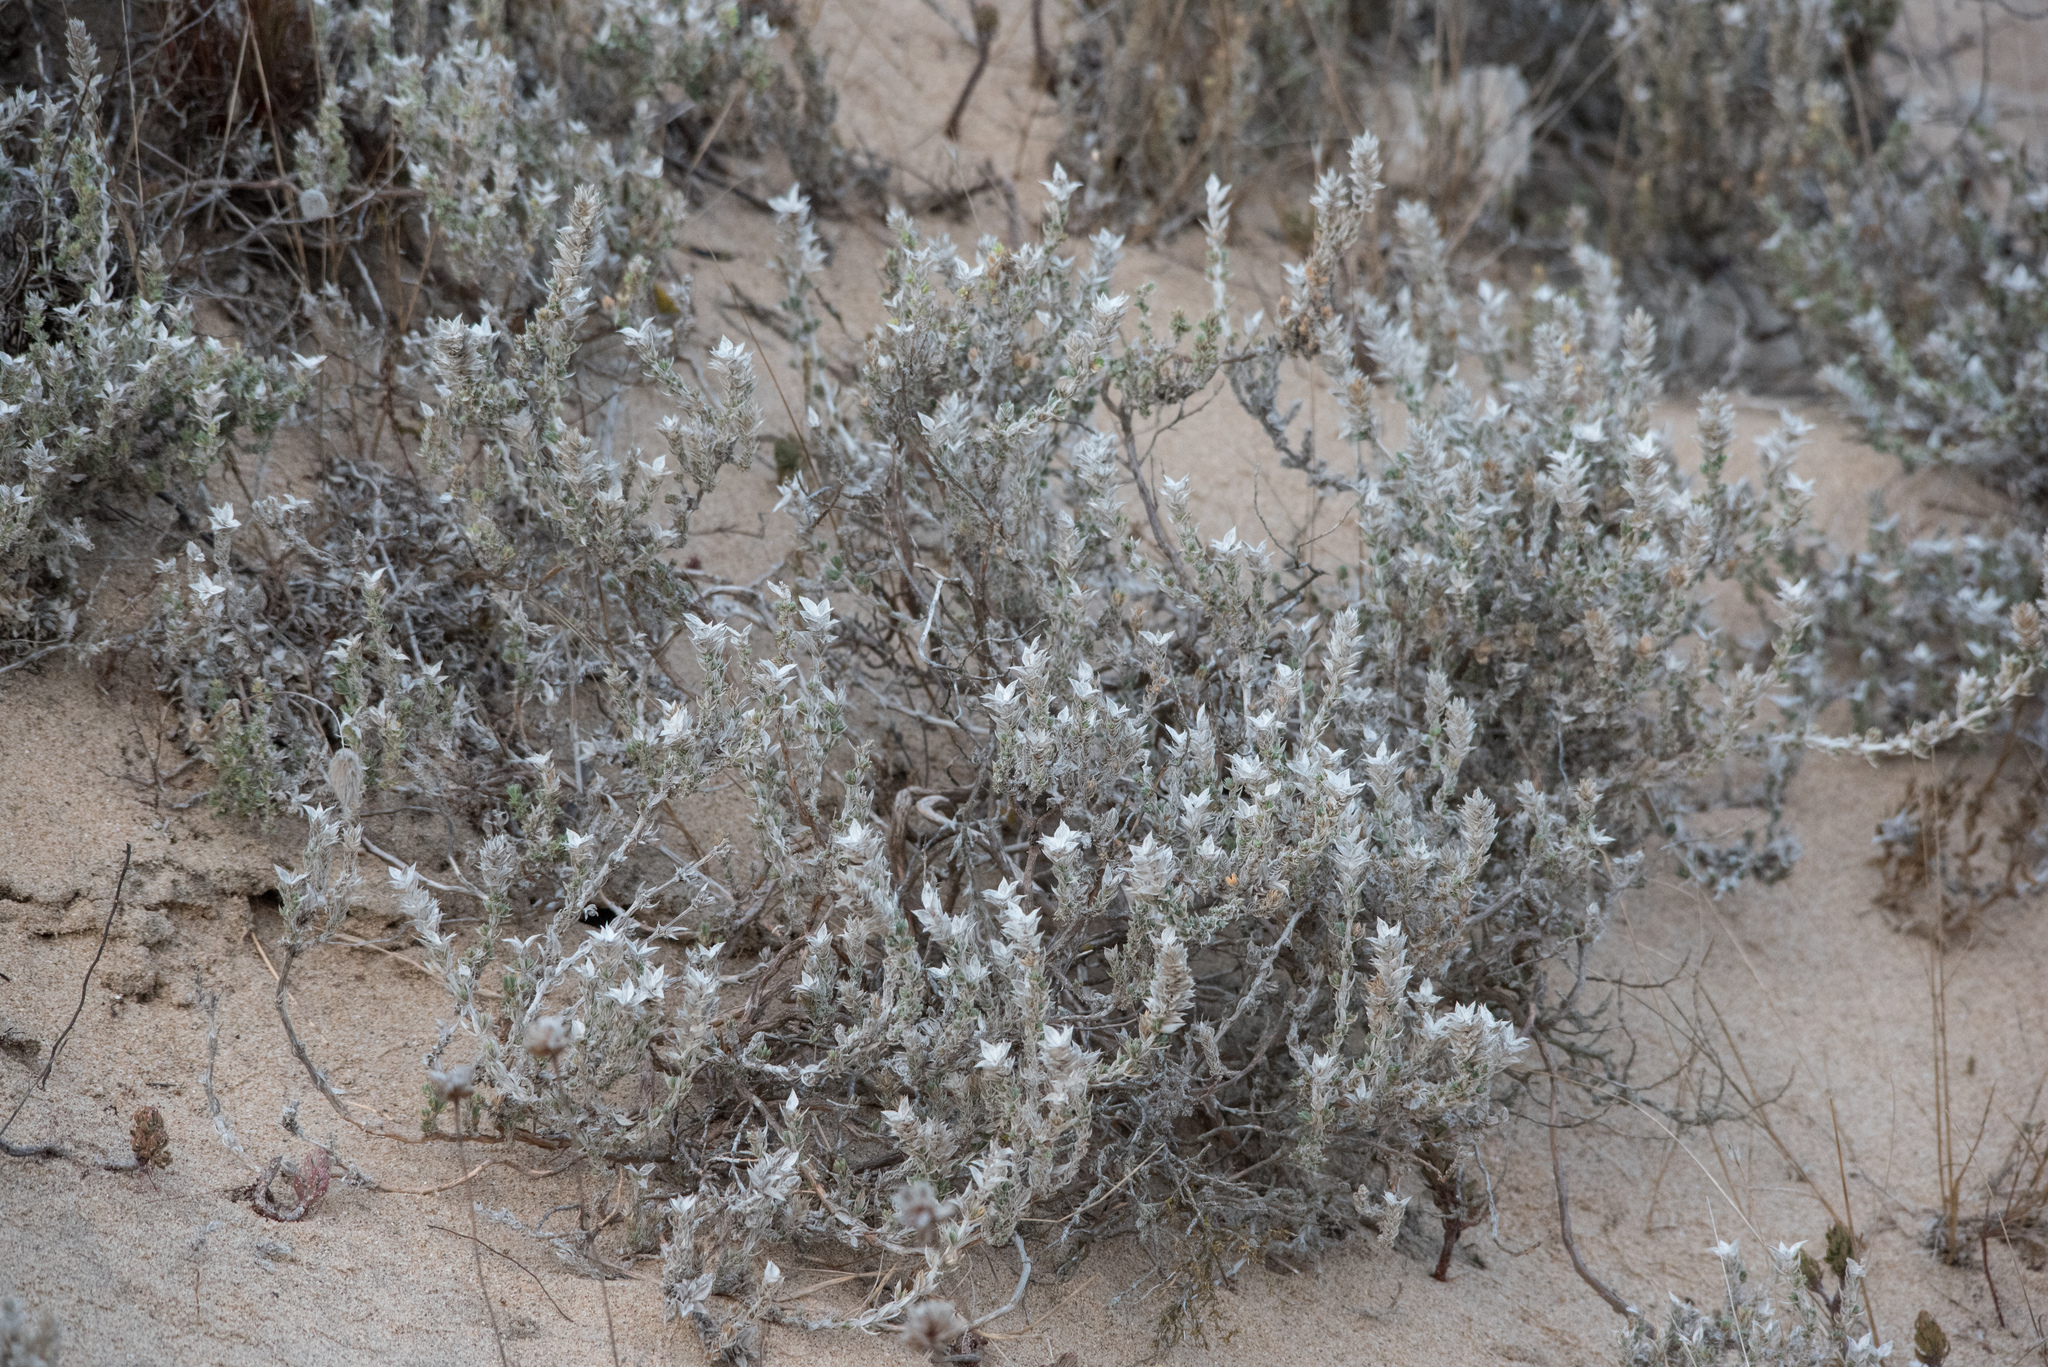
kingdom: Plantae
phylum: Tracheophyta
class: Magnoliopsida
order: Gentianales
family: Rubiaceae
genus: Crucianella
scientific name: Crucianella maritima
